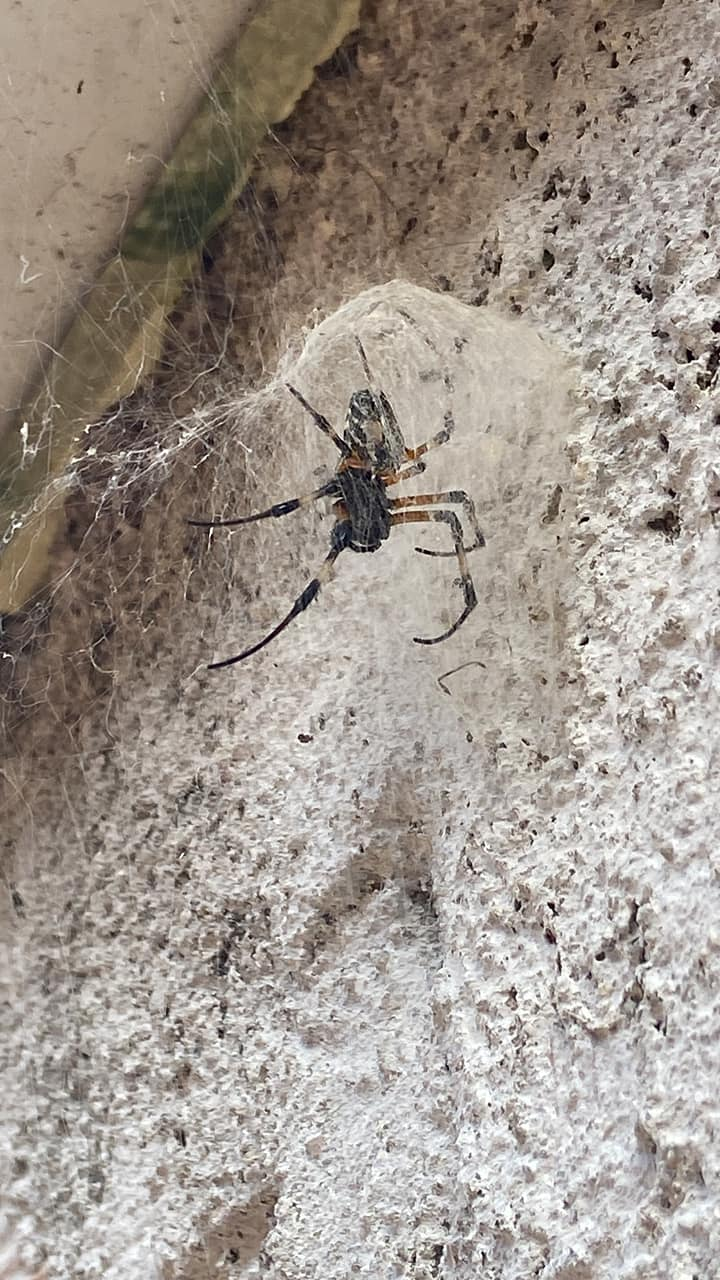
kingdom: Animalia
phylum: Arthropoda
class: Arachnida
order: Araneae
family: Araneidae
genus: Nephilingis
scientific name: Nephilingis cruentata
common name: African hermit spider
